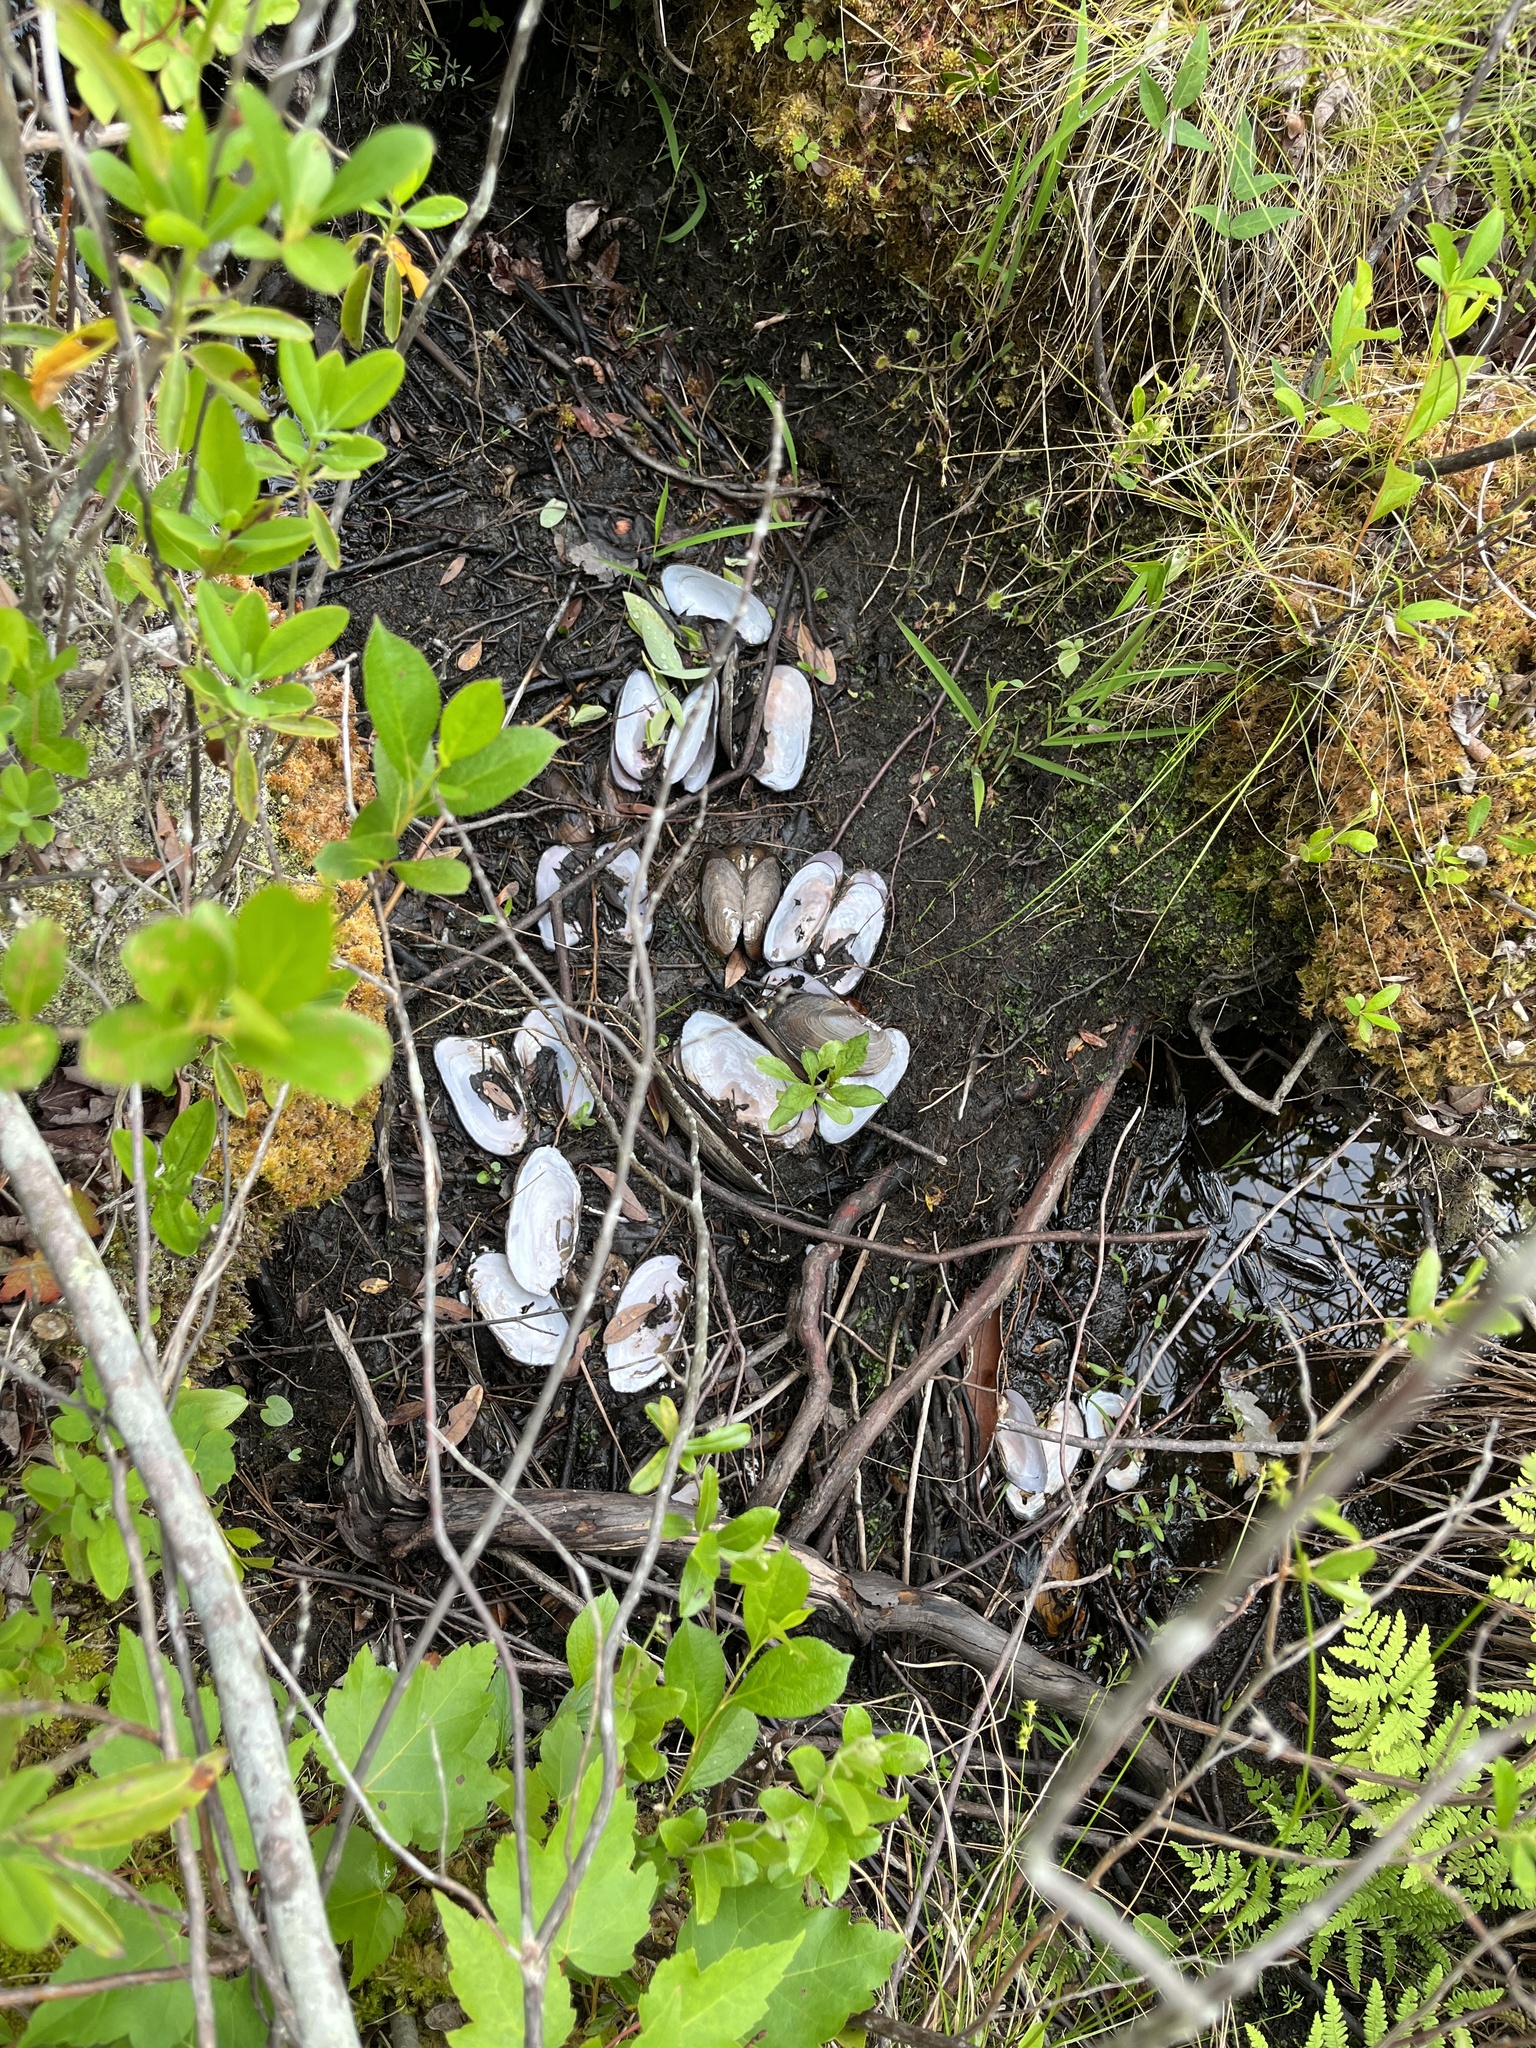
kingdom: Animalia
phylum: Mollusca
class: Bivalvia
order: Unionida
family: Unionidae
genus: Elliptio
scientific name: Elliptio complanata
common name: Eastern elliptio
